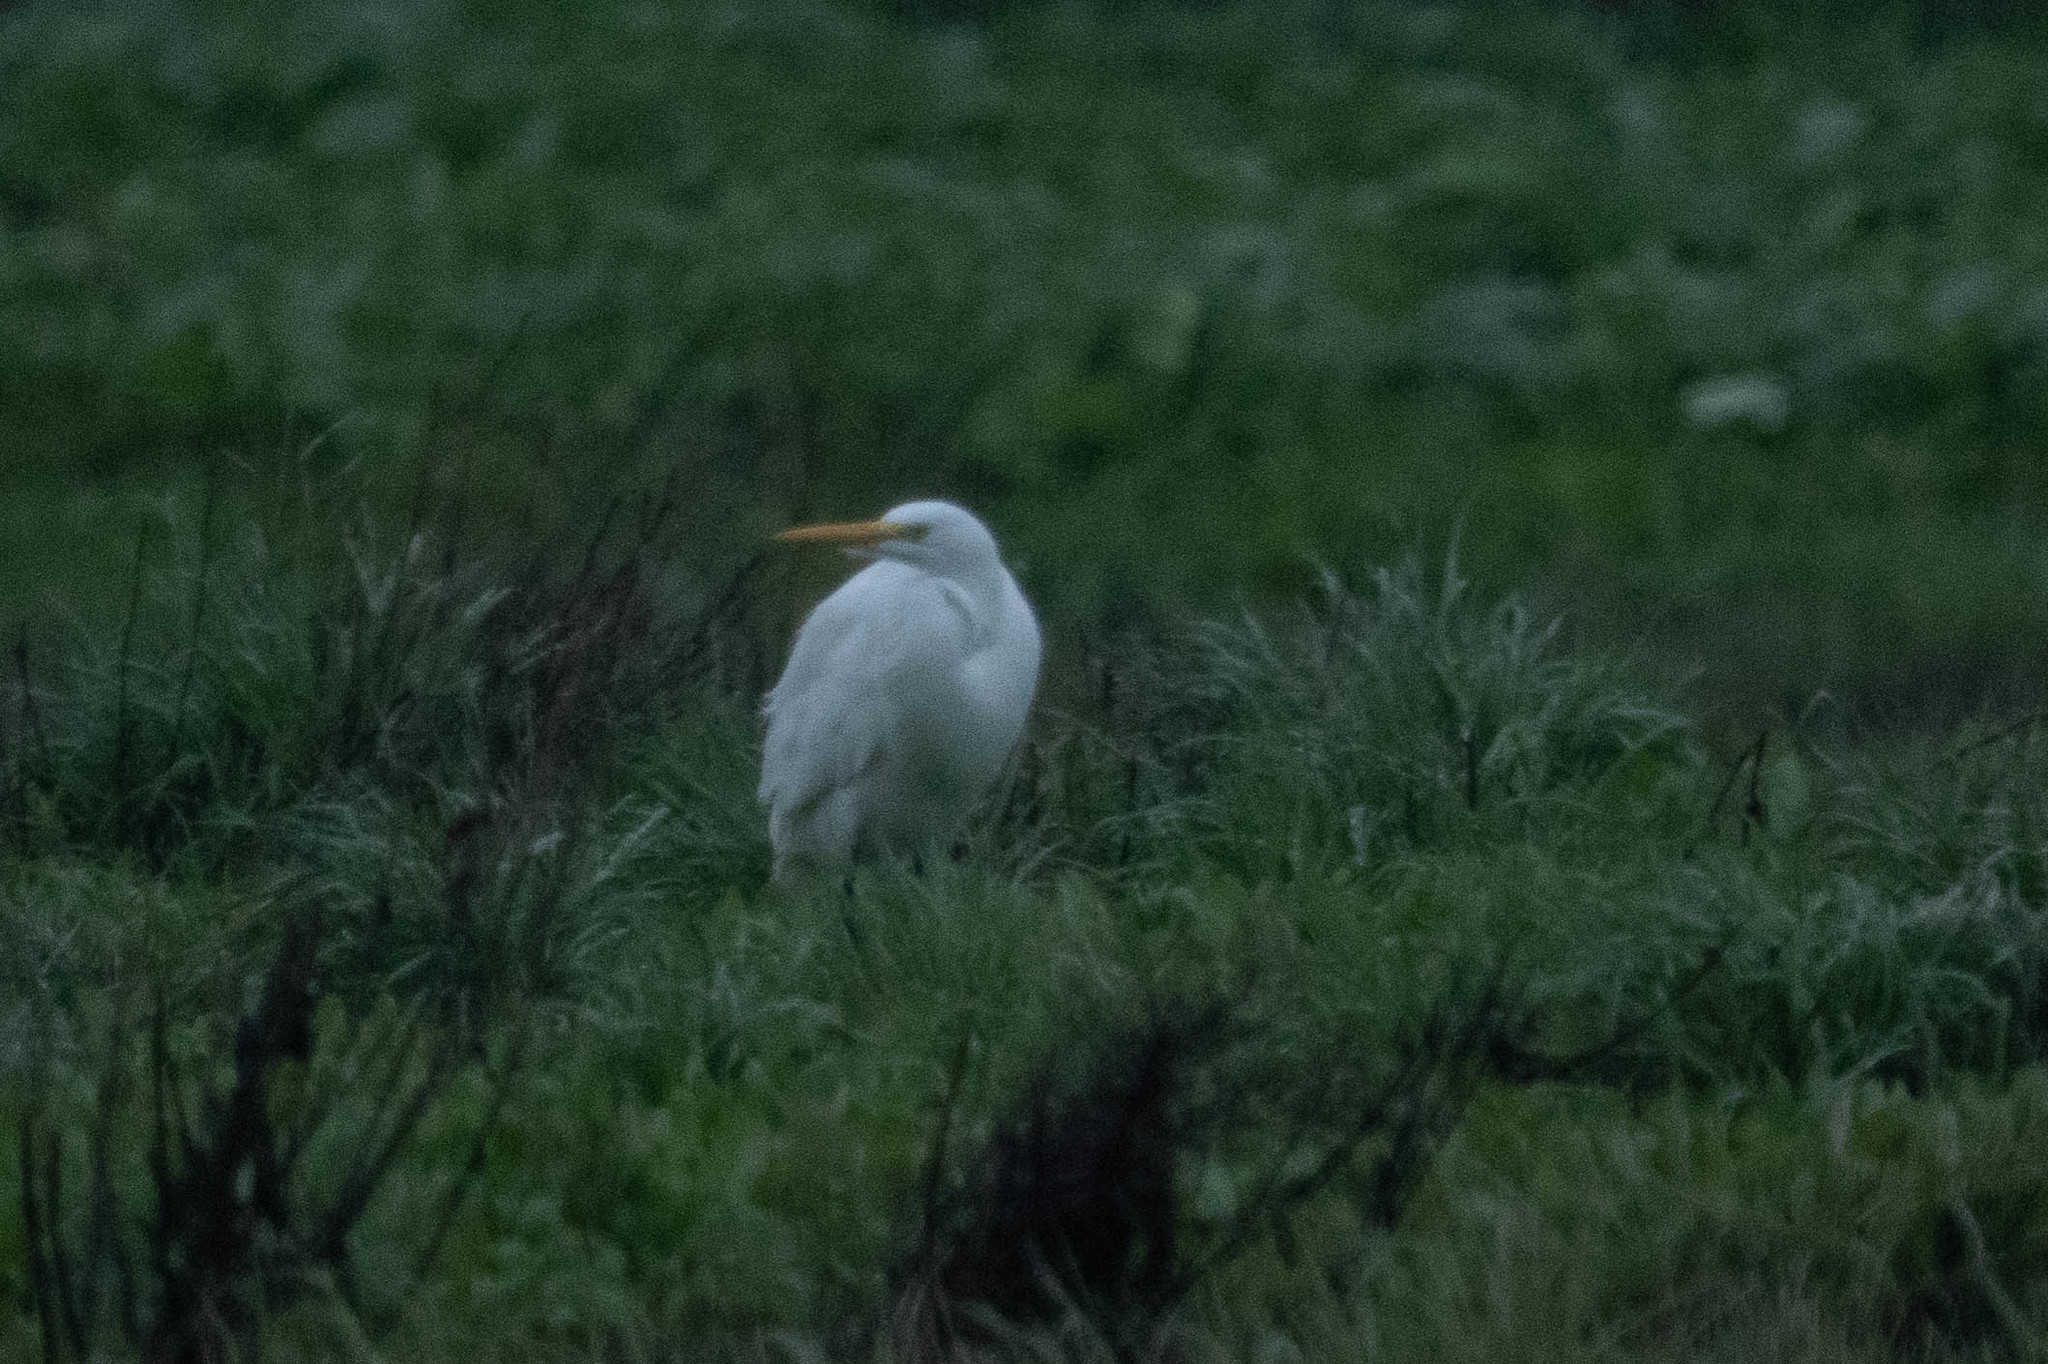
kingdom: Animalia
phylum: Chordata
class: Aves
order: Pelecaniformes
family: Ardeidae
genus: Ardea
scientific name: Ardea alba
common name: Great egret
